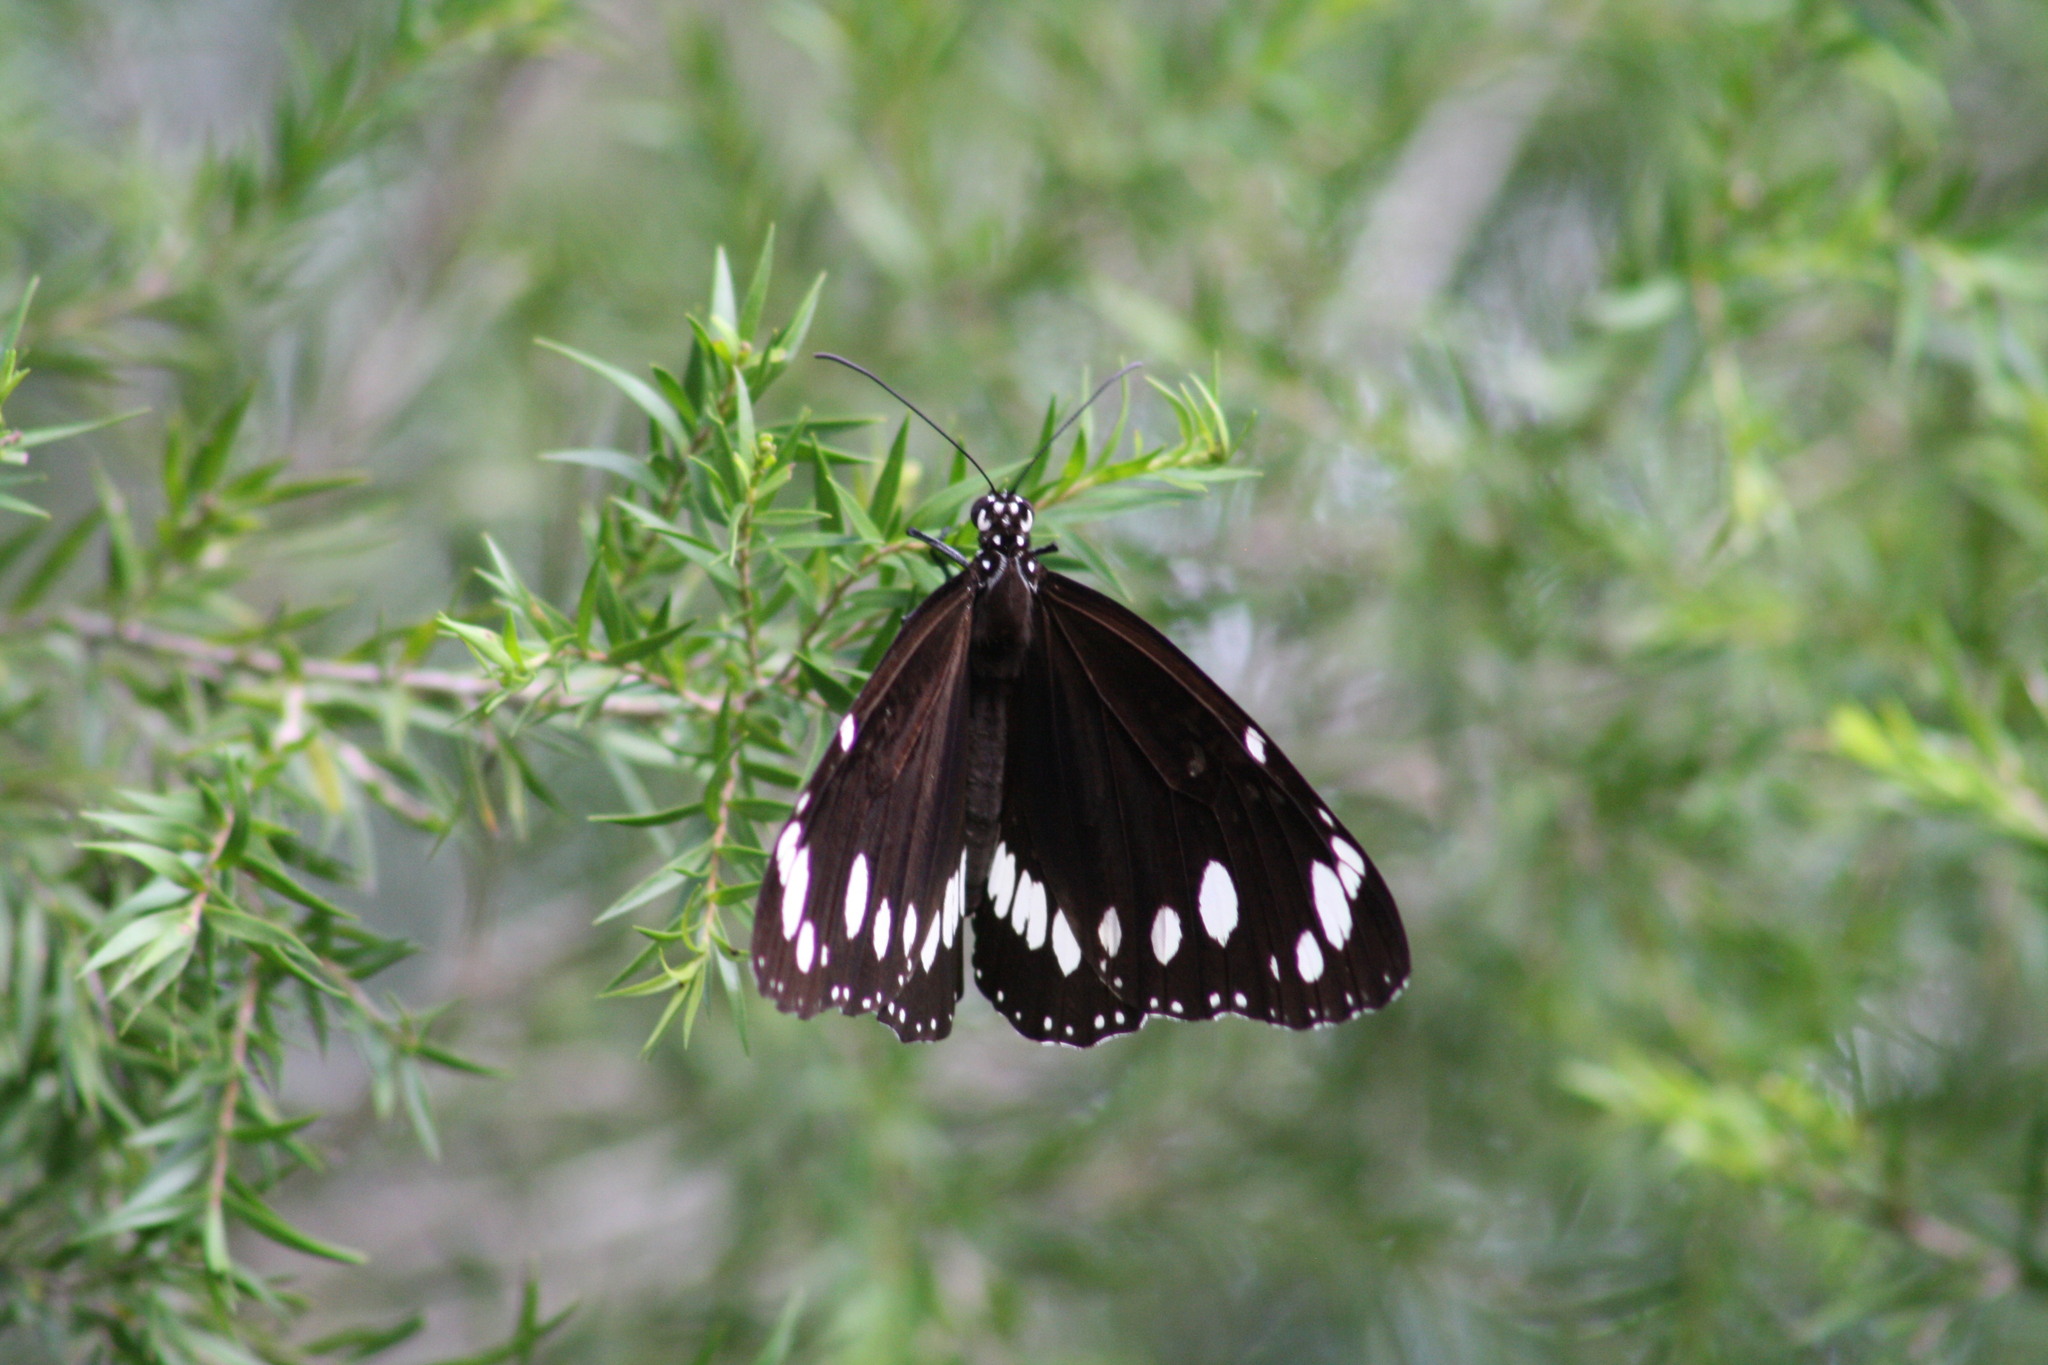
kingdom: Animalia
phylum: Arthropoda
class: Insecta
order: Lepidoptera
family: Nymphalidae
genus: Euploea
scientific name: Euploea core
